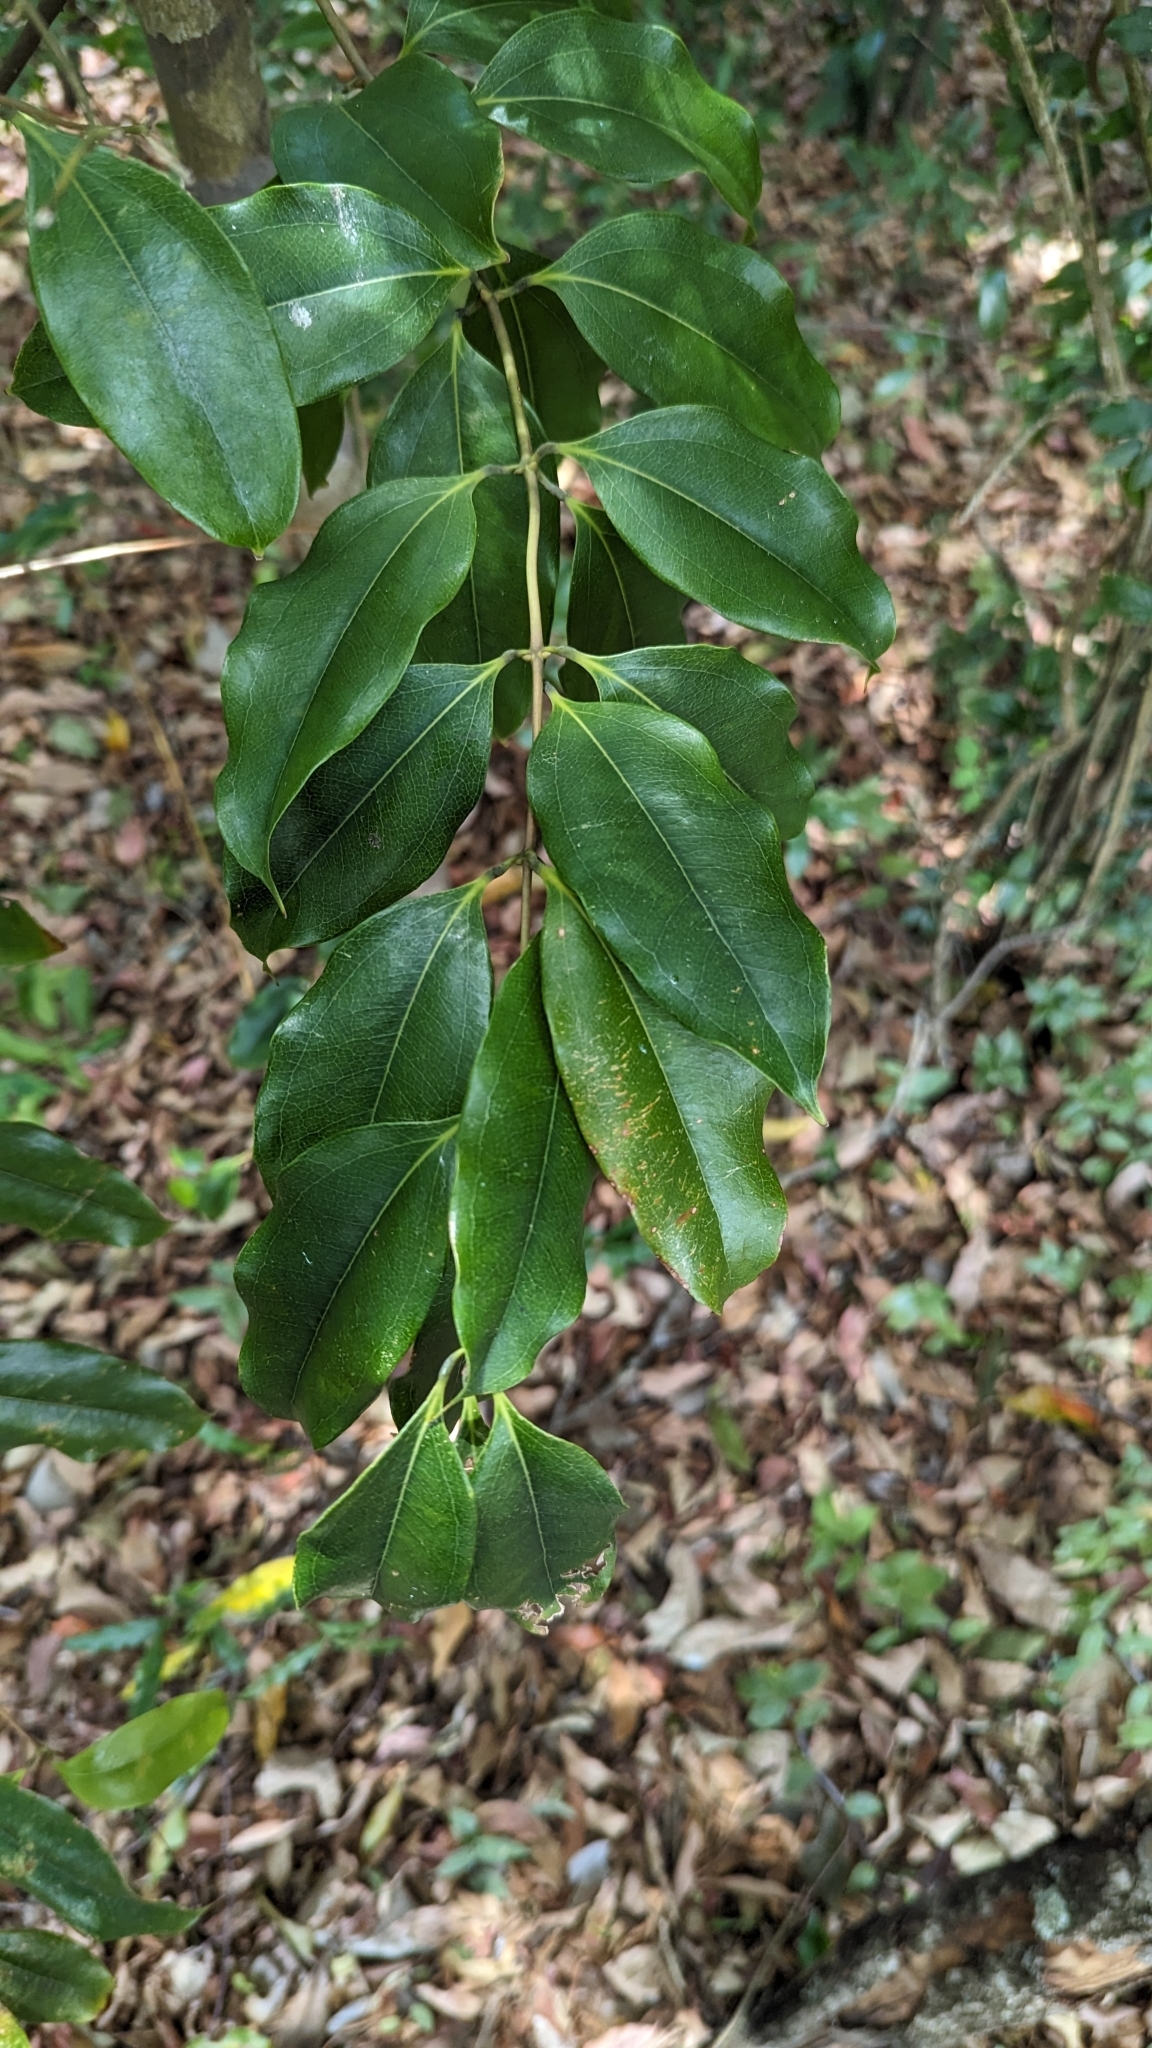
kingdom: Plantae
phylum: Tracheophyta
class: Liliopsida
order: Liliales
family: Ripogonaceae
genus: Ripogonum
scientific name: Ripogonum album
